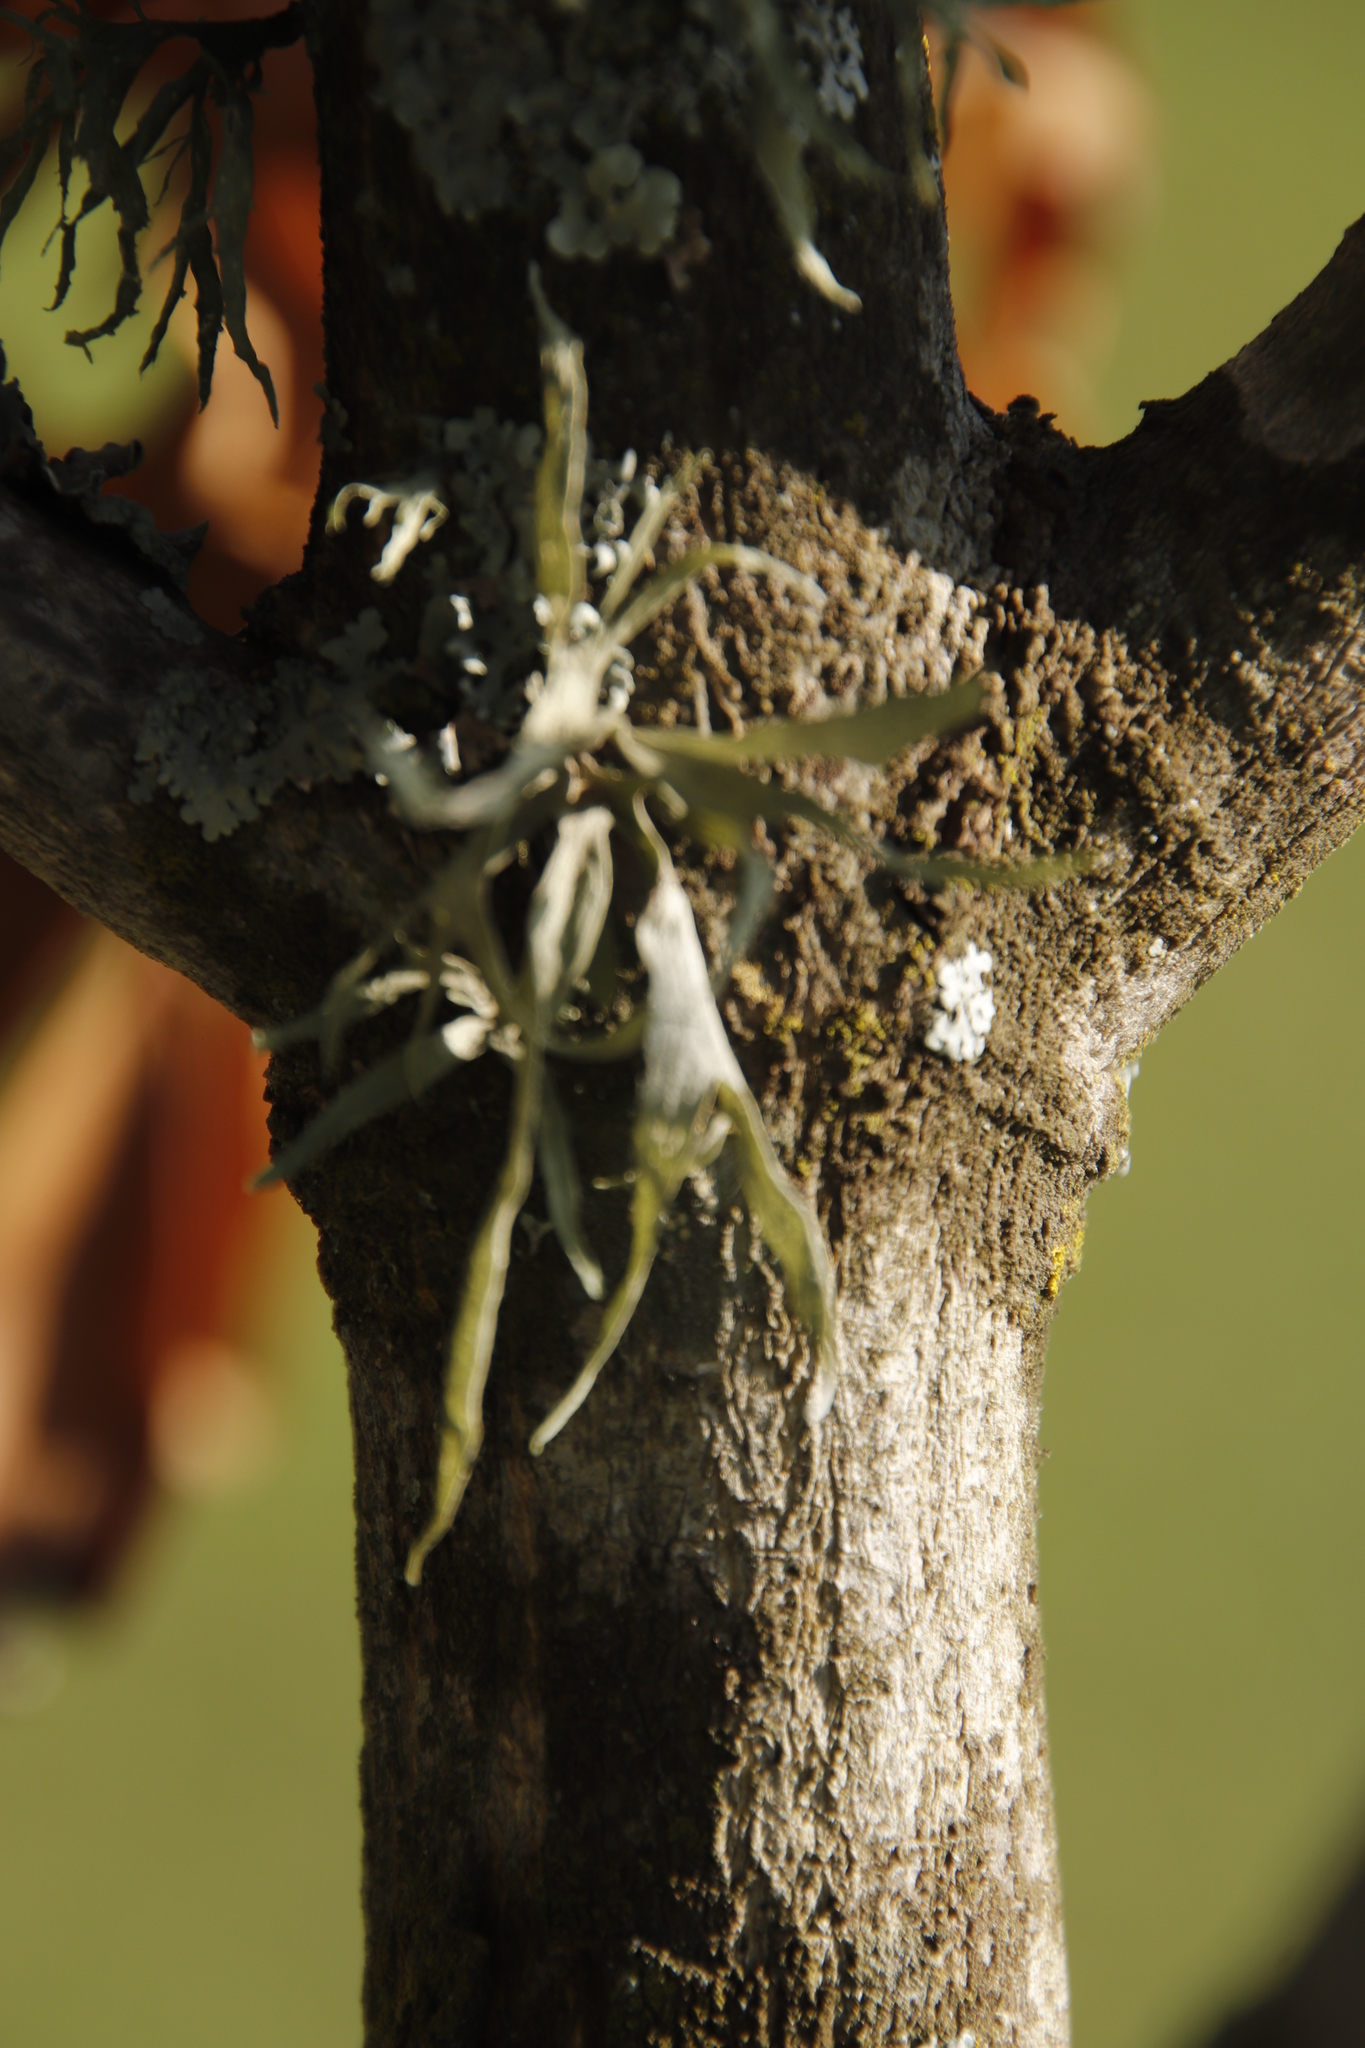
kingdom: Fungi
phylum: Ascomycota
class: Lecanoromycetes
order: Lecanorales
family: Ramalinaceae
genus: Ramalina
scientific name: Ramalina celastri
